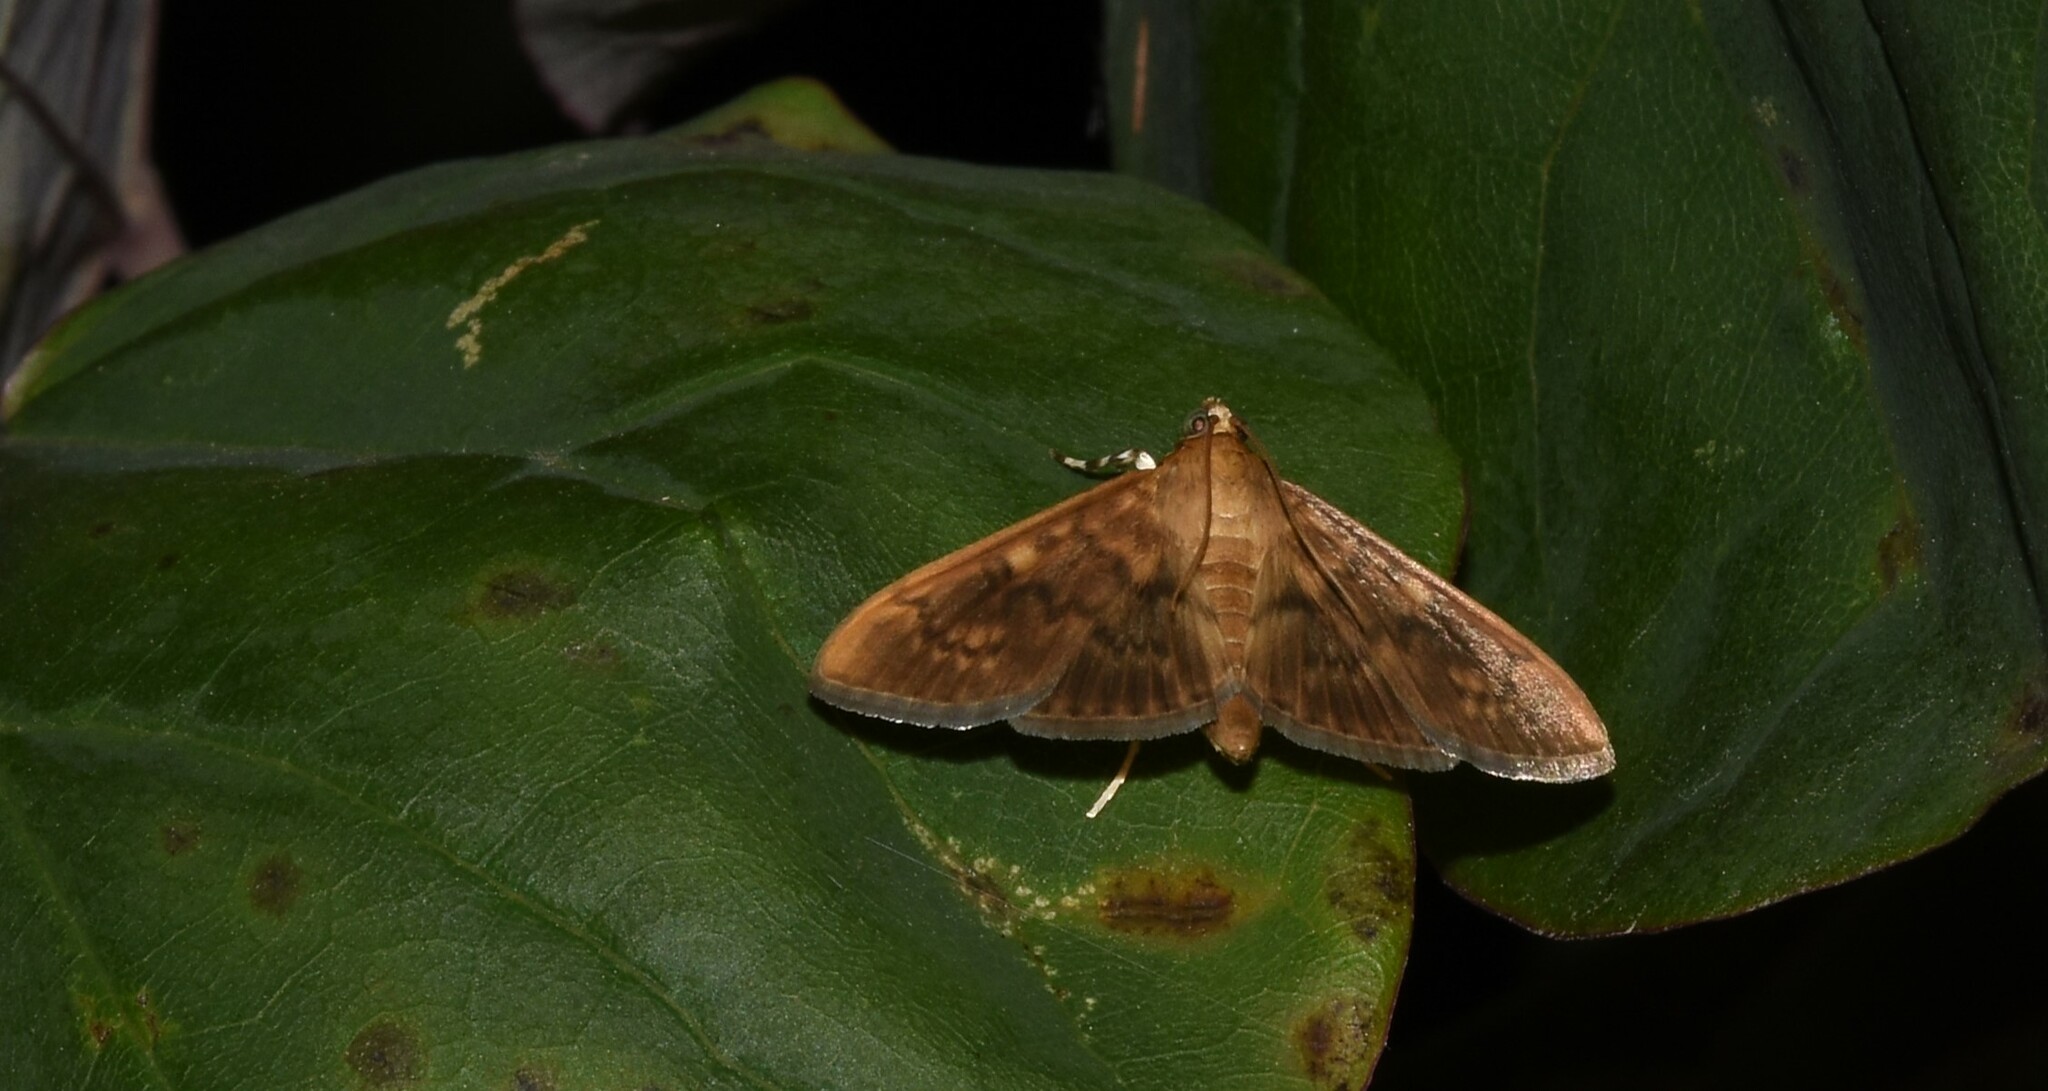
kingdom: Animalia
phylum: Arthropoda
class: Insecta
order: Lepidoptera
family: Crambidae
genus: Syllepte
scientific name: Syllepte obscuralis
